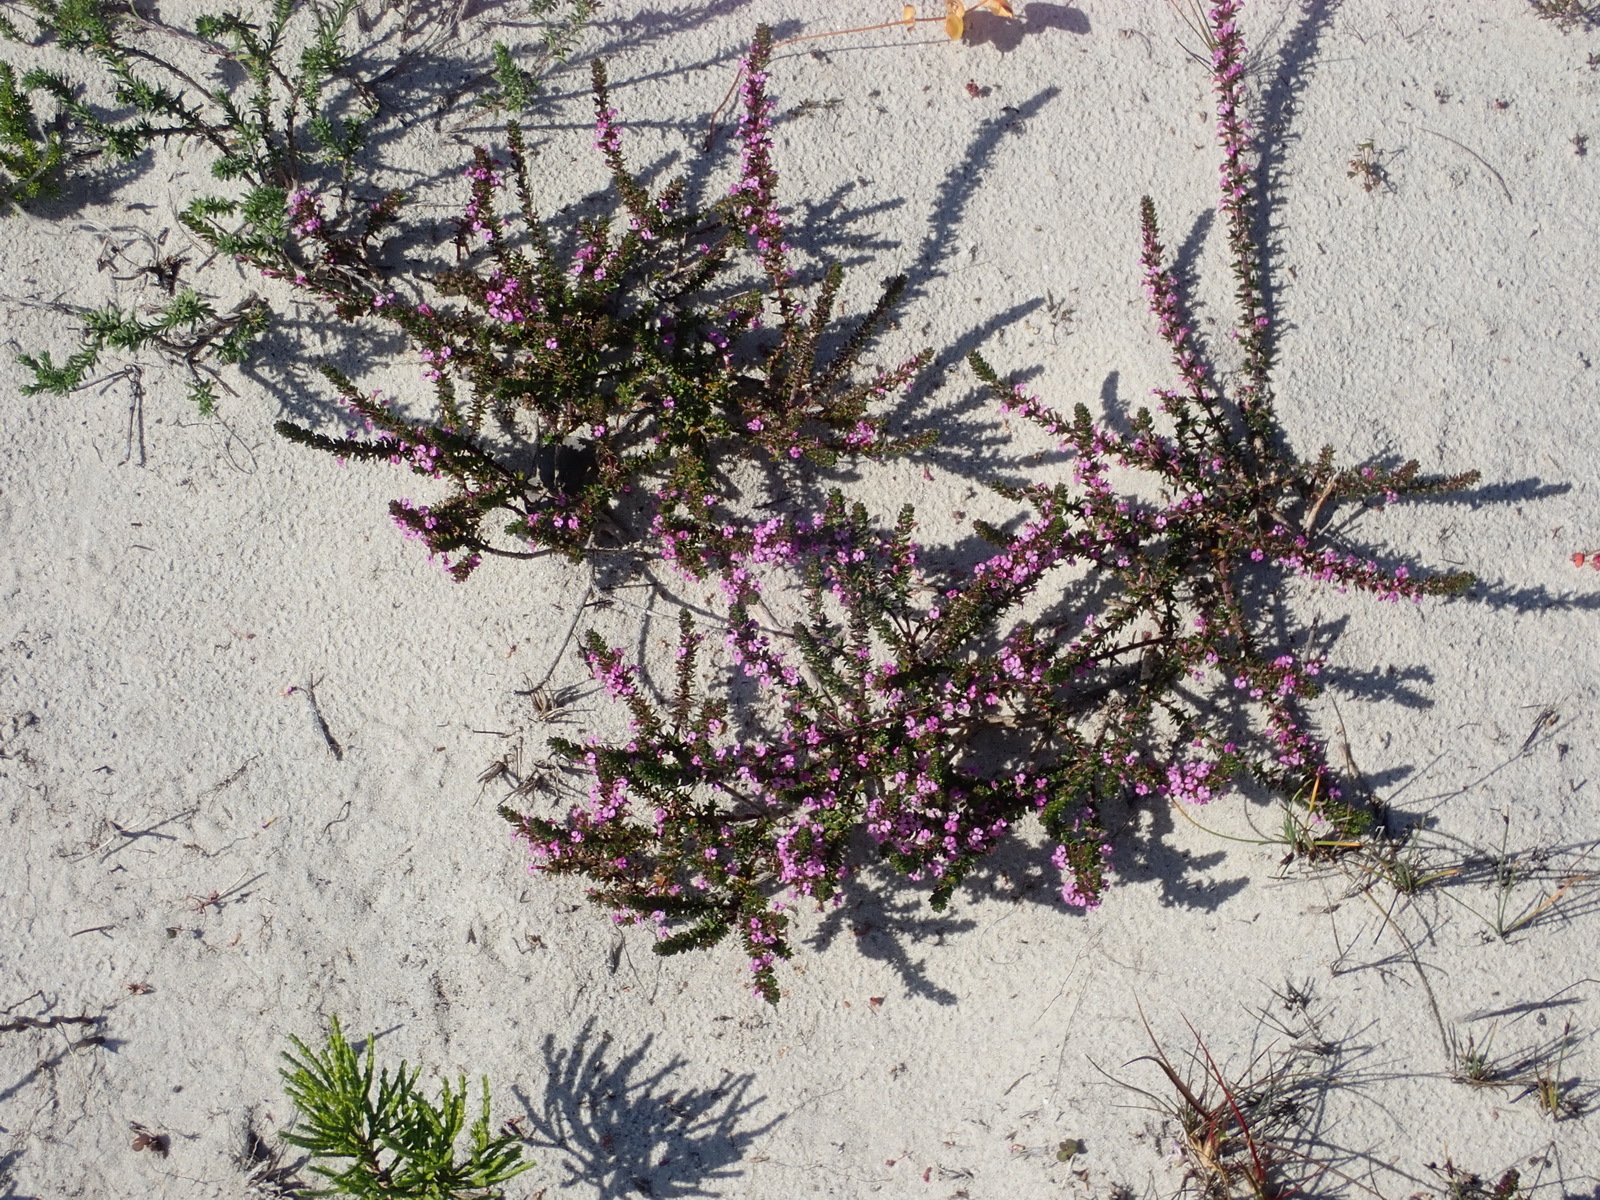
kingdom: Plantae
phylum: Tracheophyta
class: Magnoliopsida
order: Fabales
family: Polygalaceae
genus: Muraltia
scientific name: Muraltia satureioides
